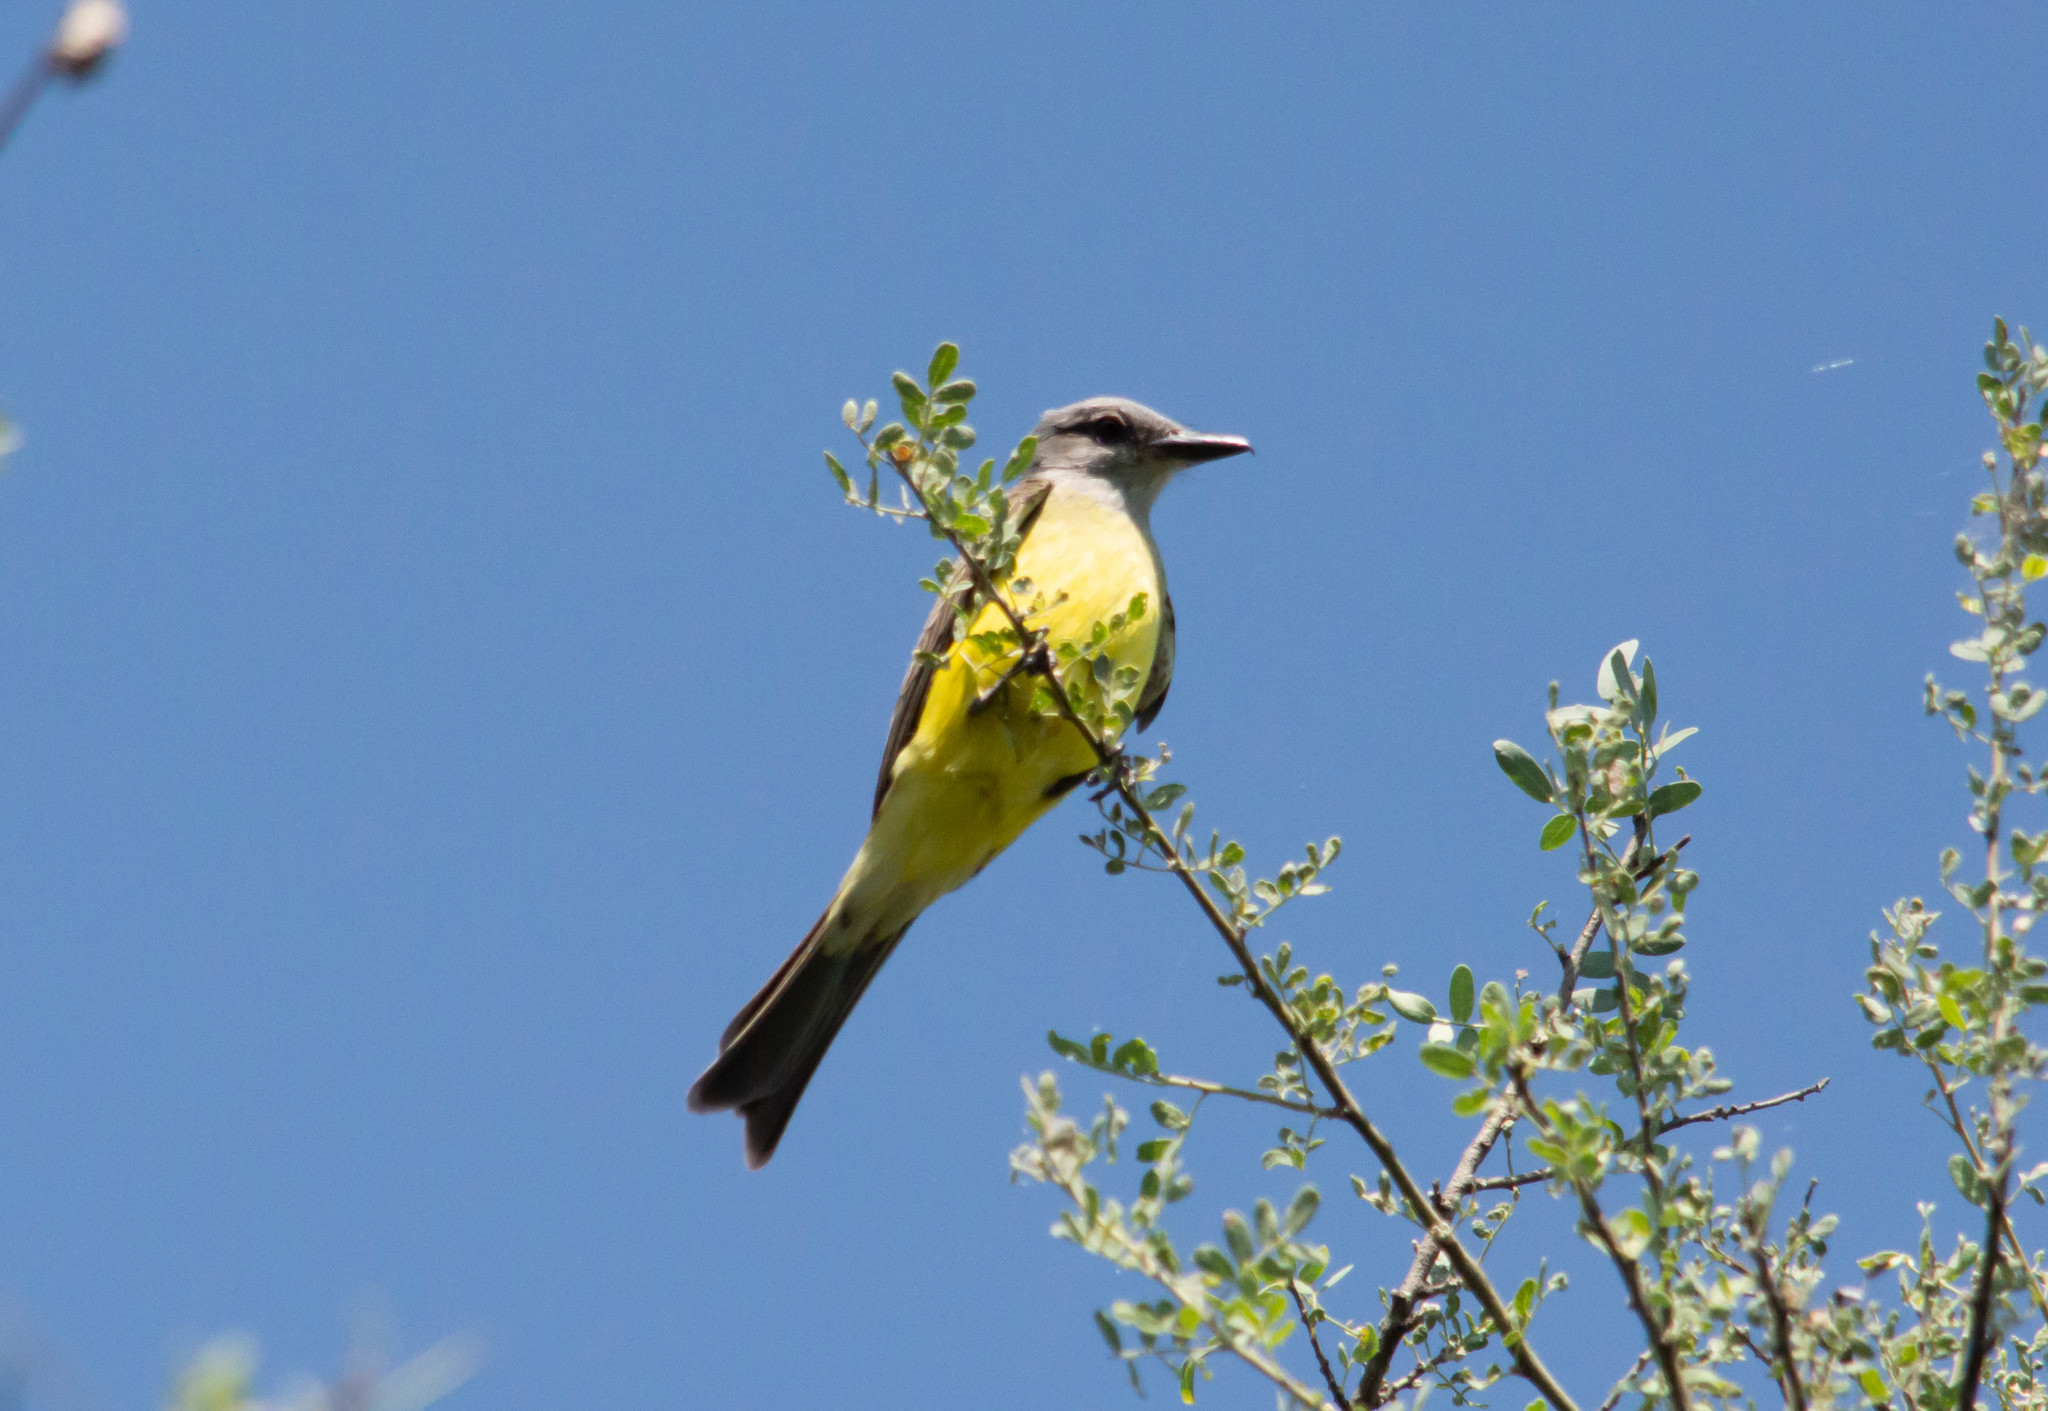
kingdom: Animalia
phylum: Chordata
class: Aves
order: Passeriformes
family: Tyrannidae
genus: Tyrannus
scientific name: Tyrannus melancholicus
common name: Tropical kingbird
